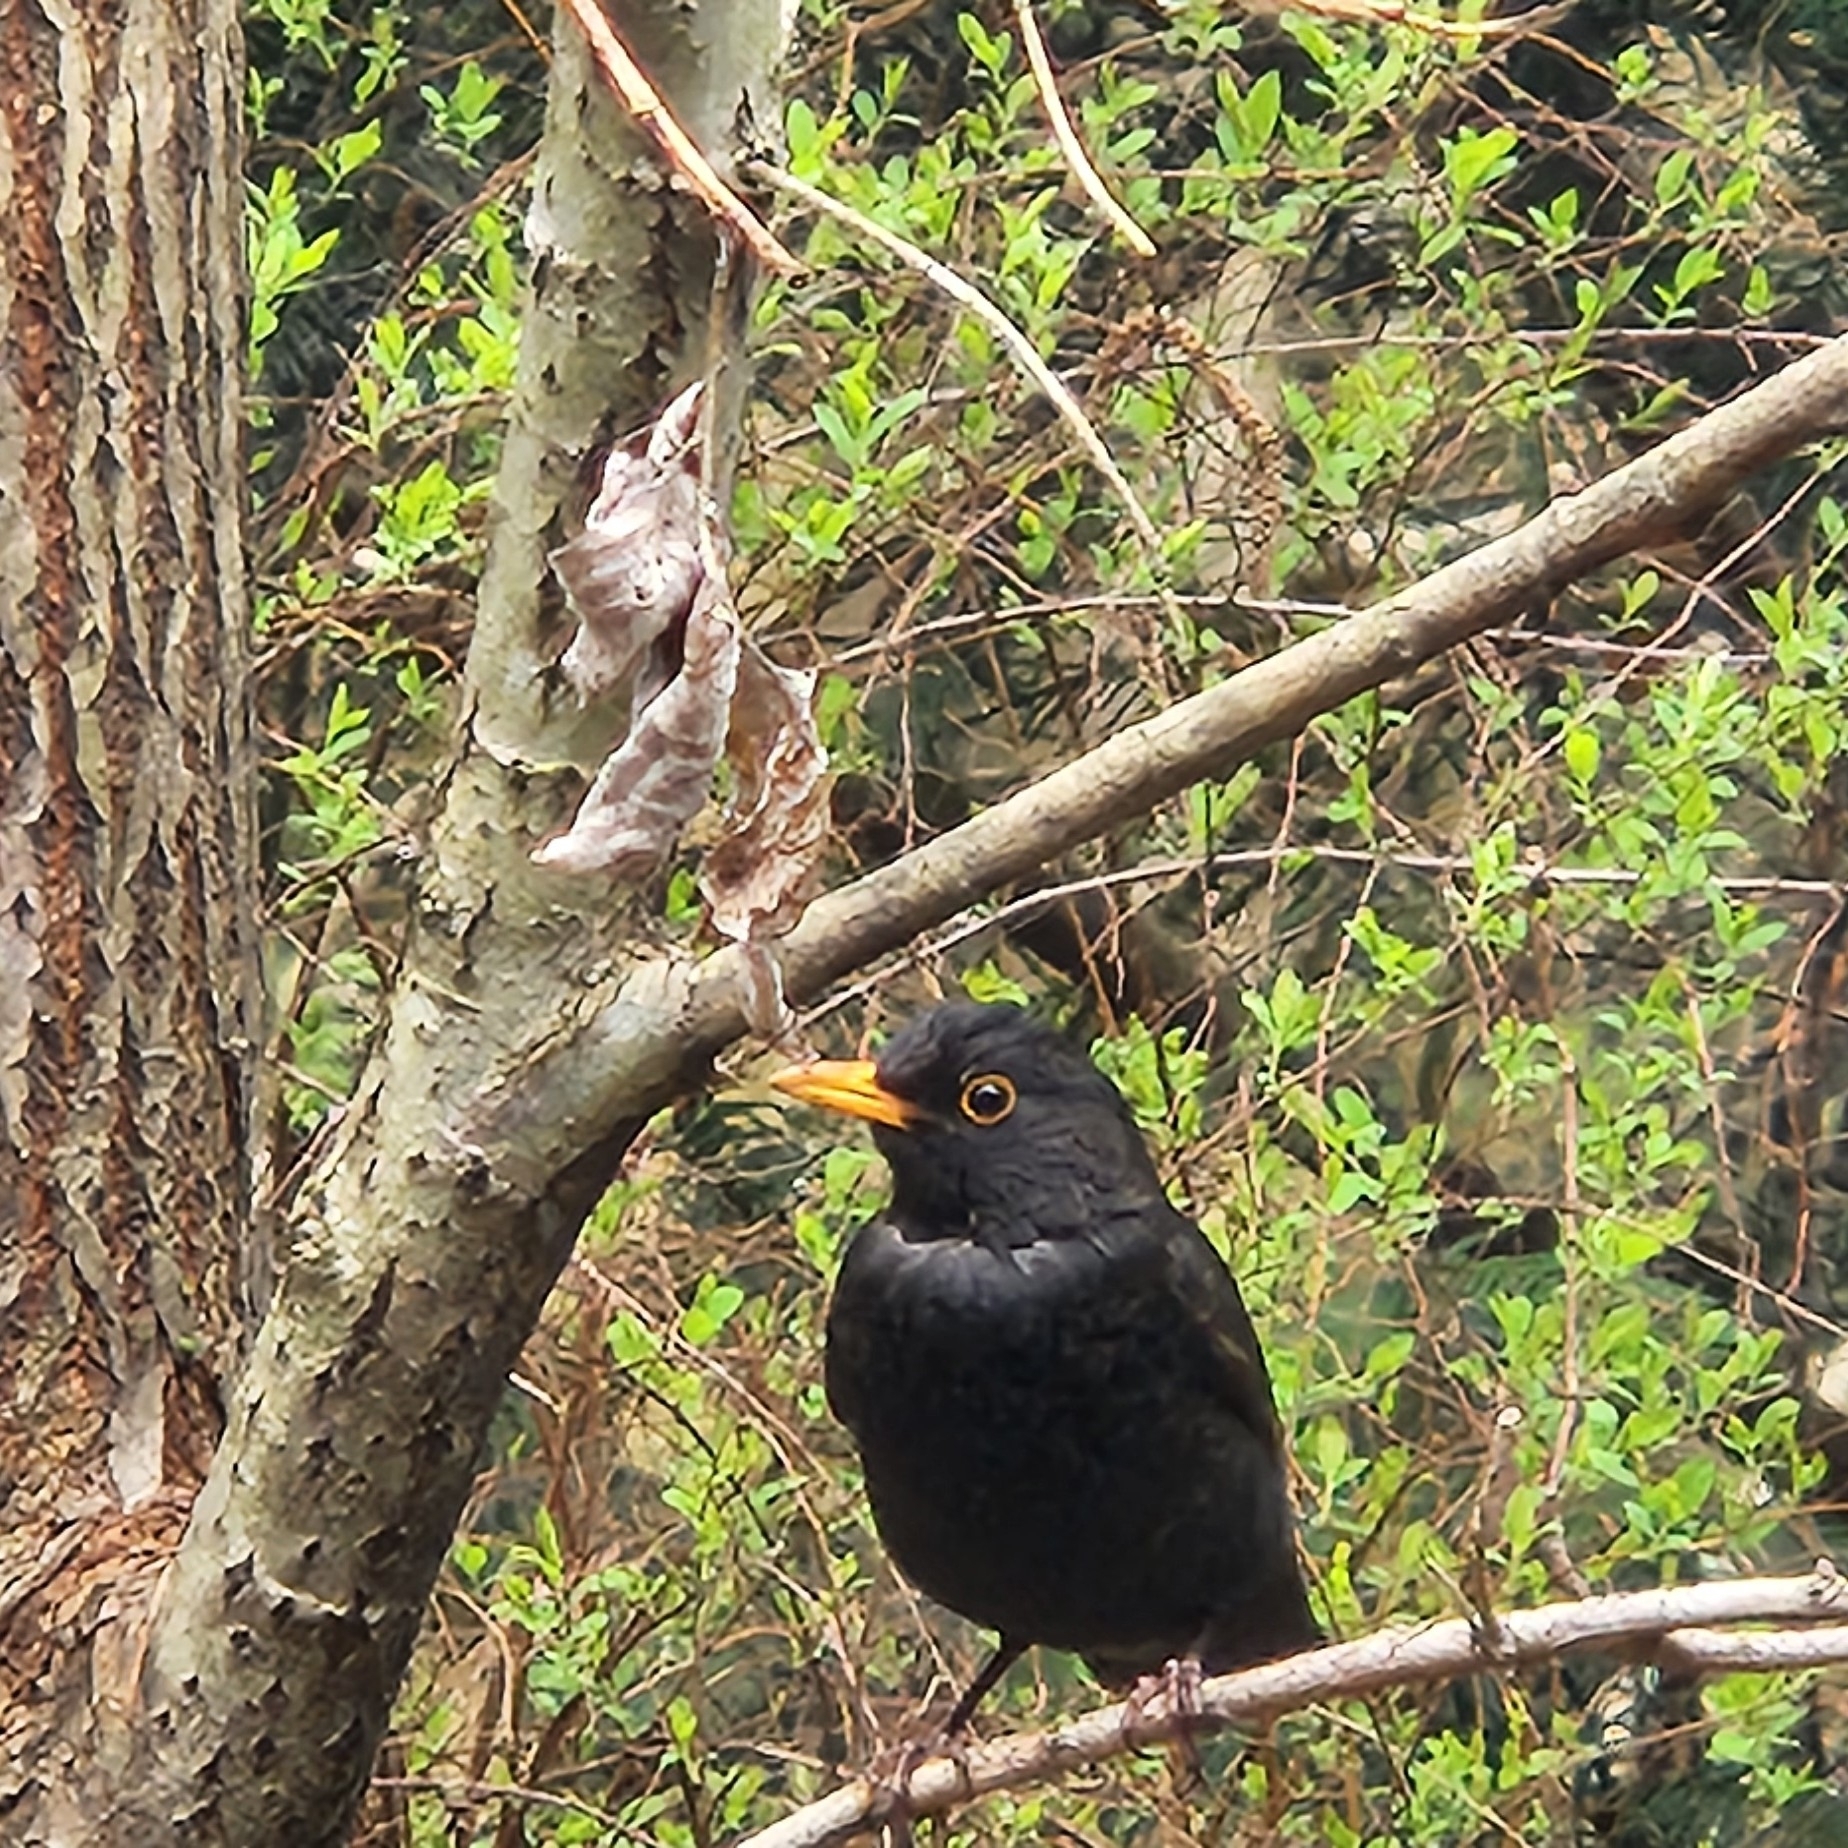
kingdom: Animalia
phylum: Chordata
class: Aves
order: Passeriformes
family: Turdidae
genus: Turdus
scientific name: Turdus merula
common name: Common blackbird
